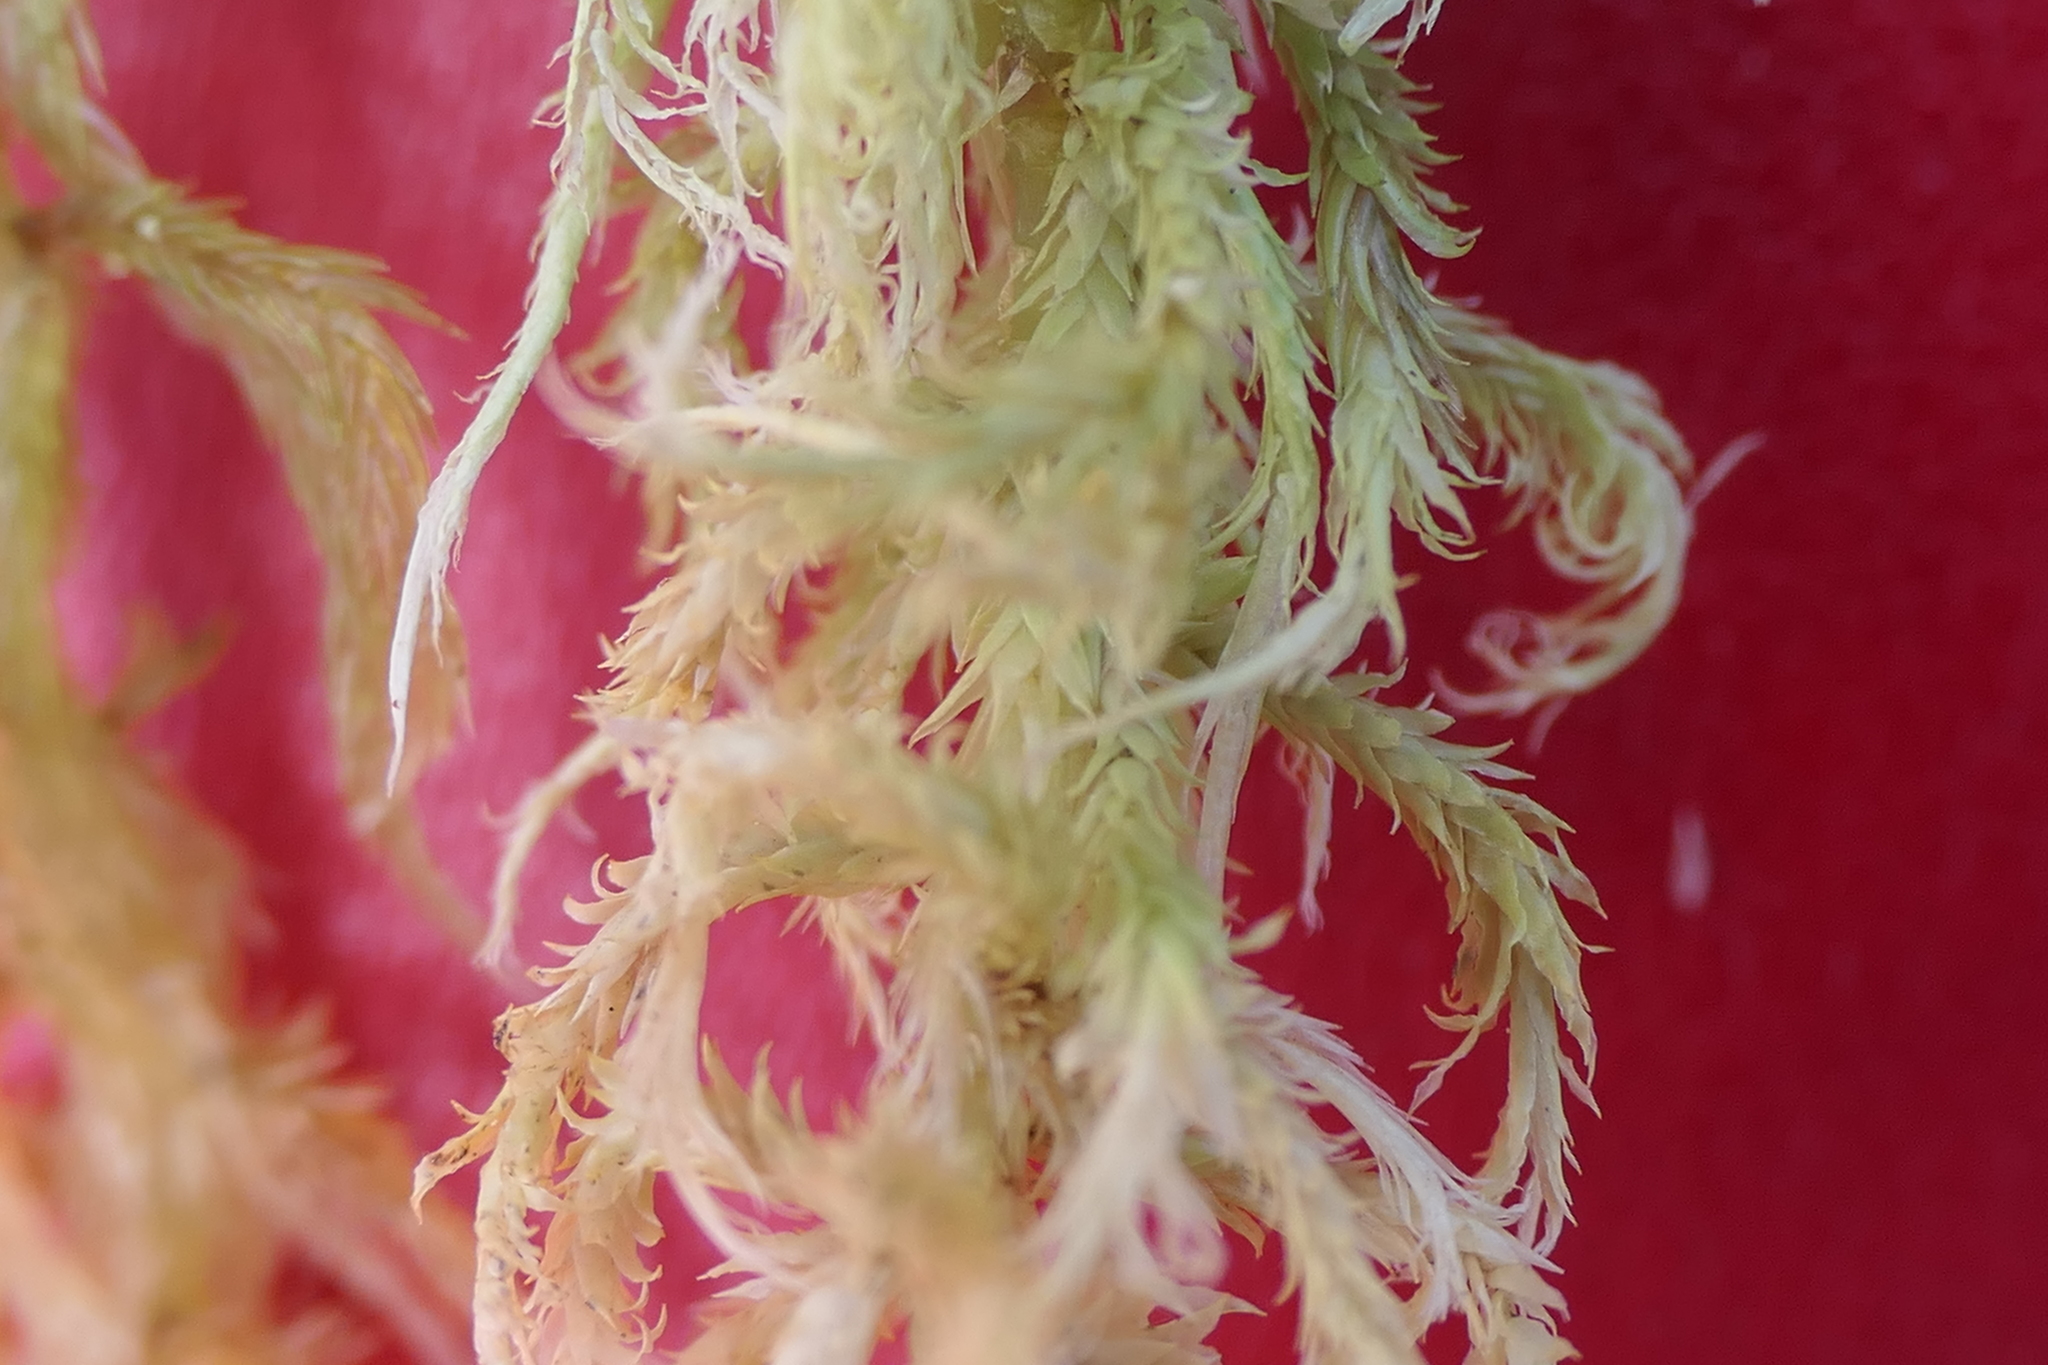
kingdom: Plantae
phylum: Bryophyta
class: Sphagnopsida
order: Sphagnales
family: Sphagnaceae
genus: Sphagnum
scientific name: Sphagnum fallax
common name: Flat-top peat moss
